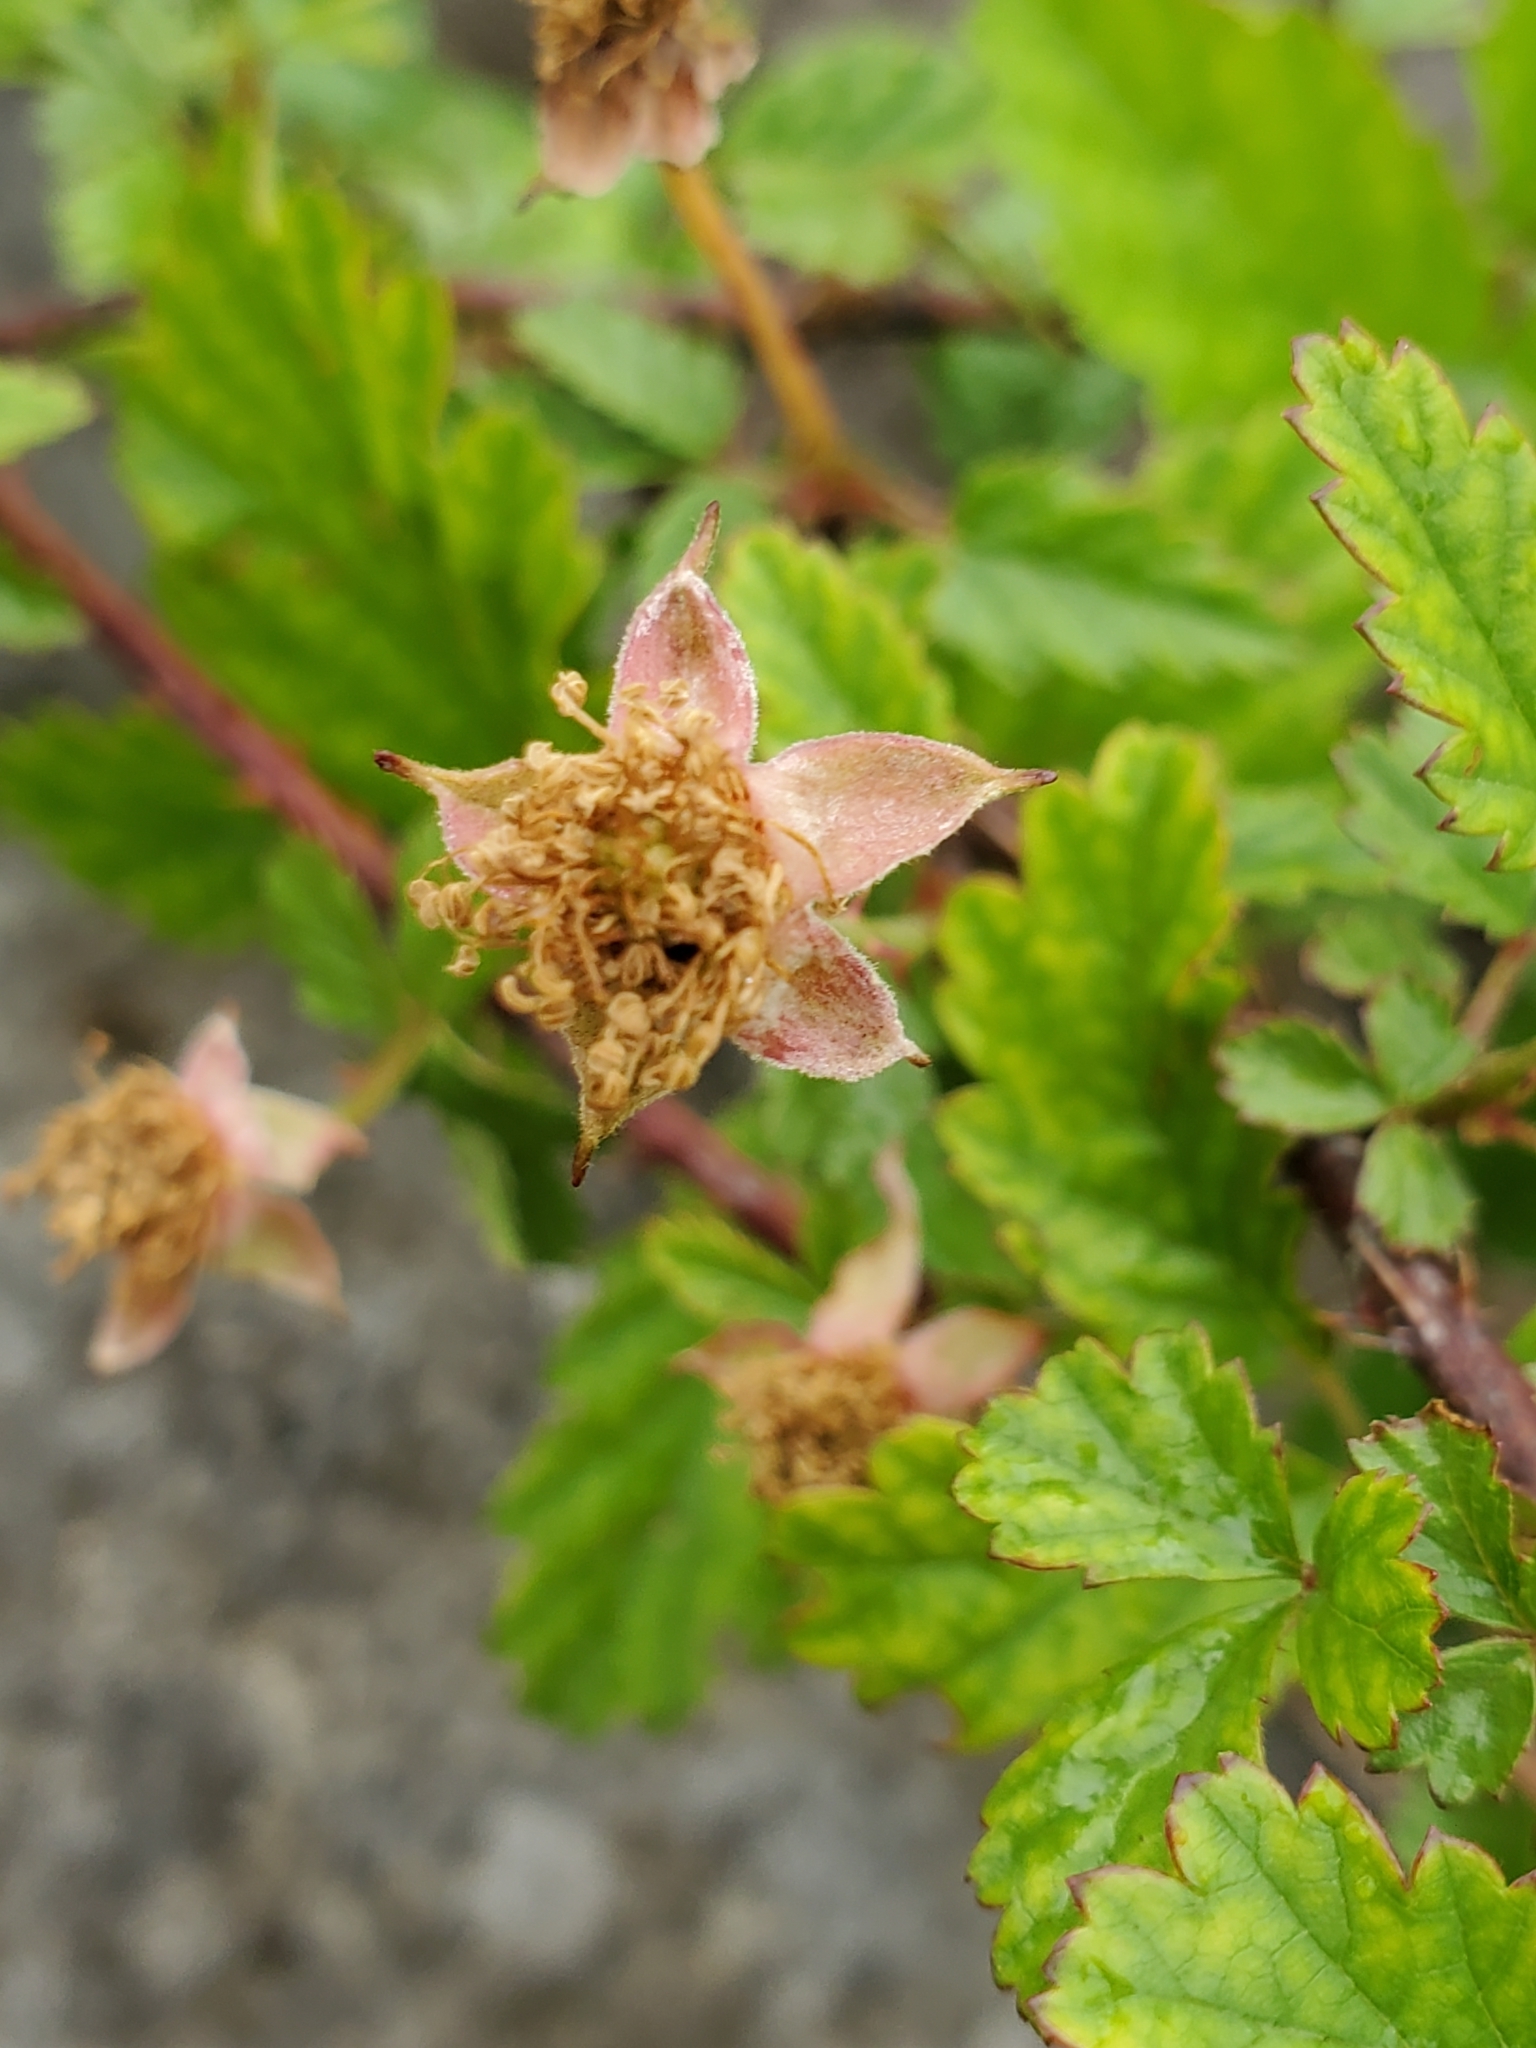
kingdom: Plantae
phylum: Tracheophyta
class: Magnoliopsida
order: Rosales
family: Rosaceae
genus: Rubus
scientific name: Rubus trivialis
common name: Southern dewberry
